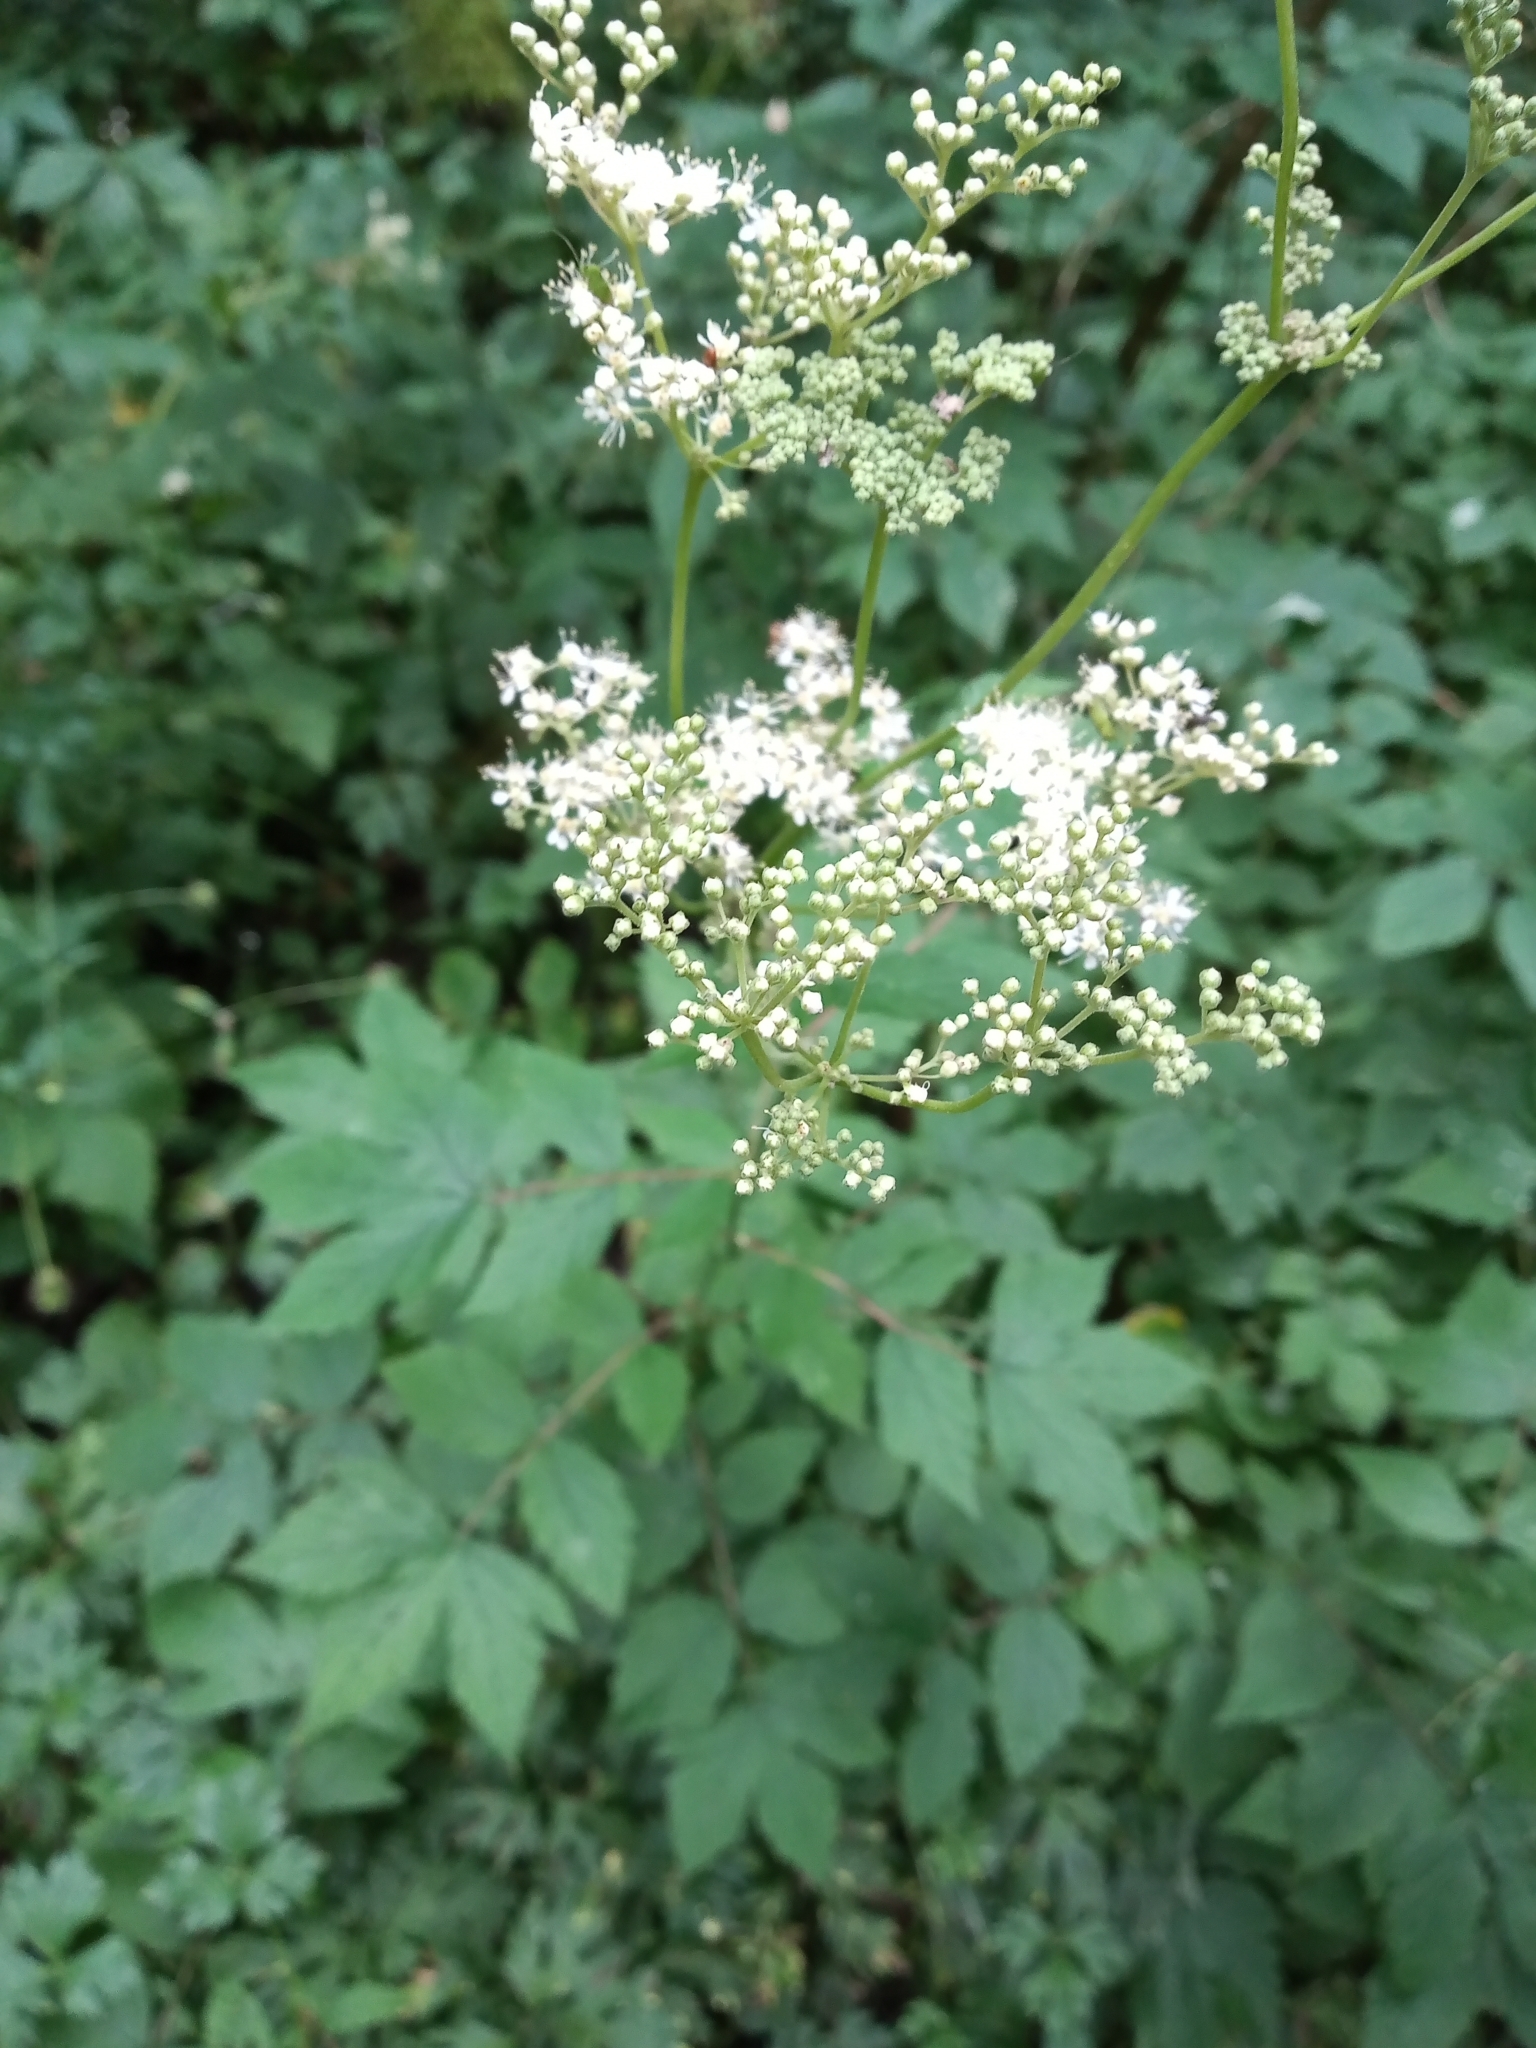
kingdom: Plantae
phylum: Tracheophyta
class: Magnoliopsida
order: Rosales
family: Rosaceae
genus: Filipendula
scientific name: Filipendula ulmaria
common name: Meadowsweet
